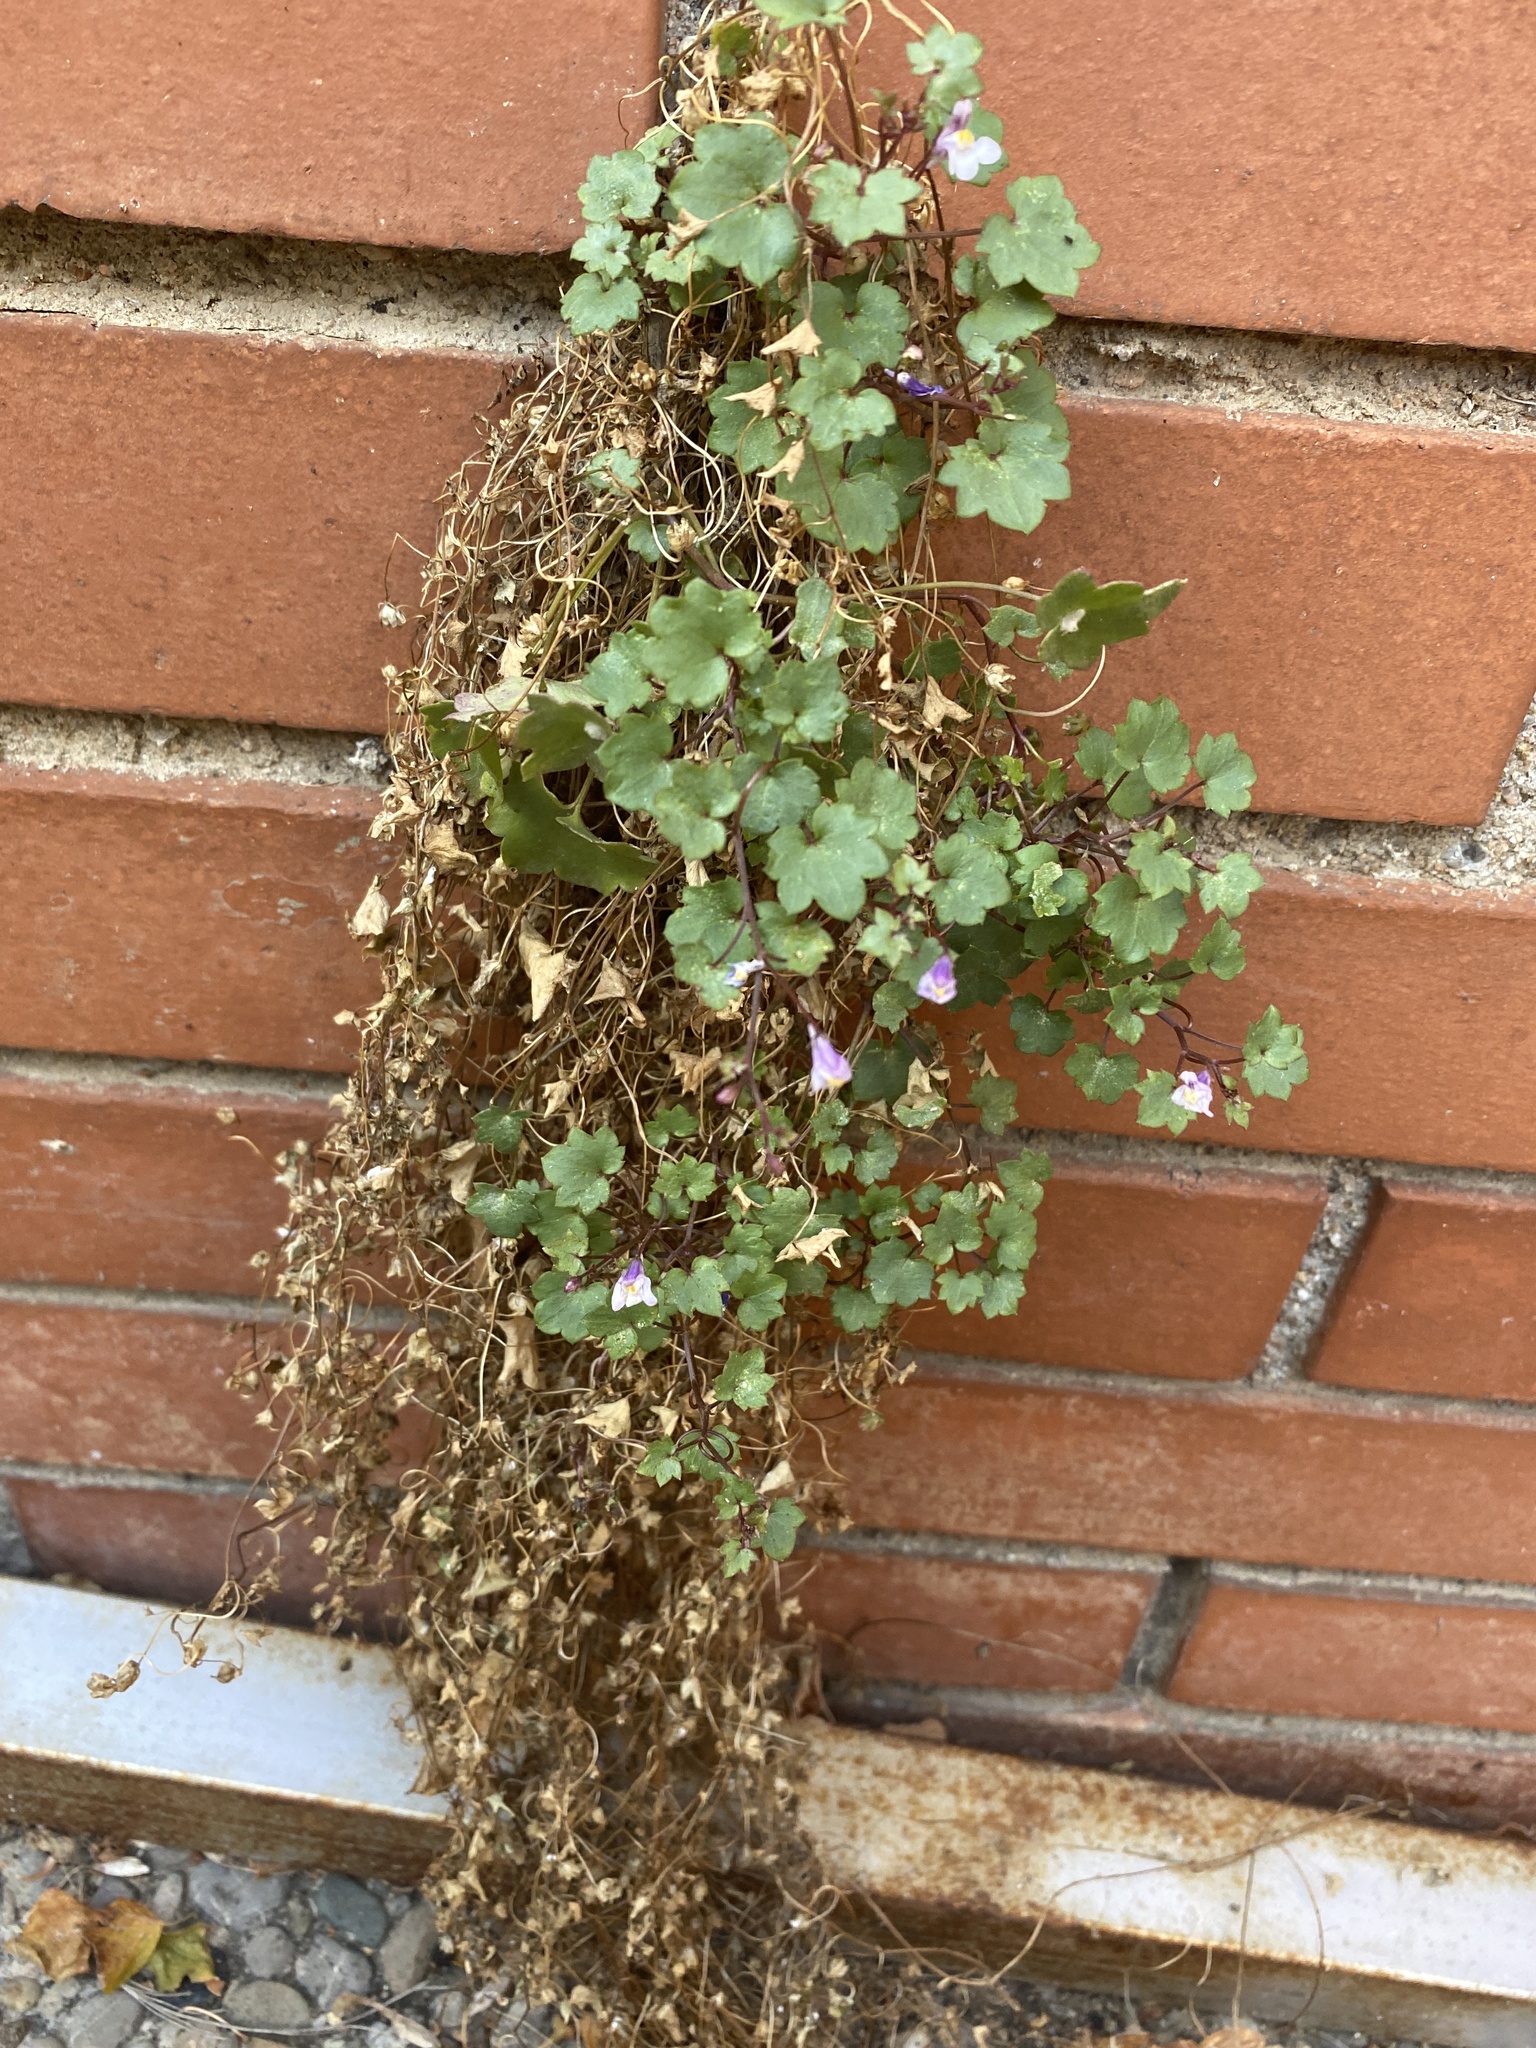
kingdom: Plantae
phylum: Tracheophyta
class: Magnoliopsida
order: Lamiales
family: Plantaginaceae
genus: Cymbalaria
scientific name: Cymbalaria muralis
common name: Ivy-leaved toadflax
